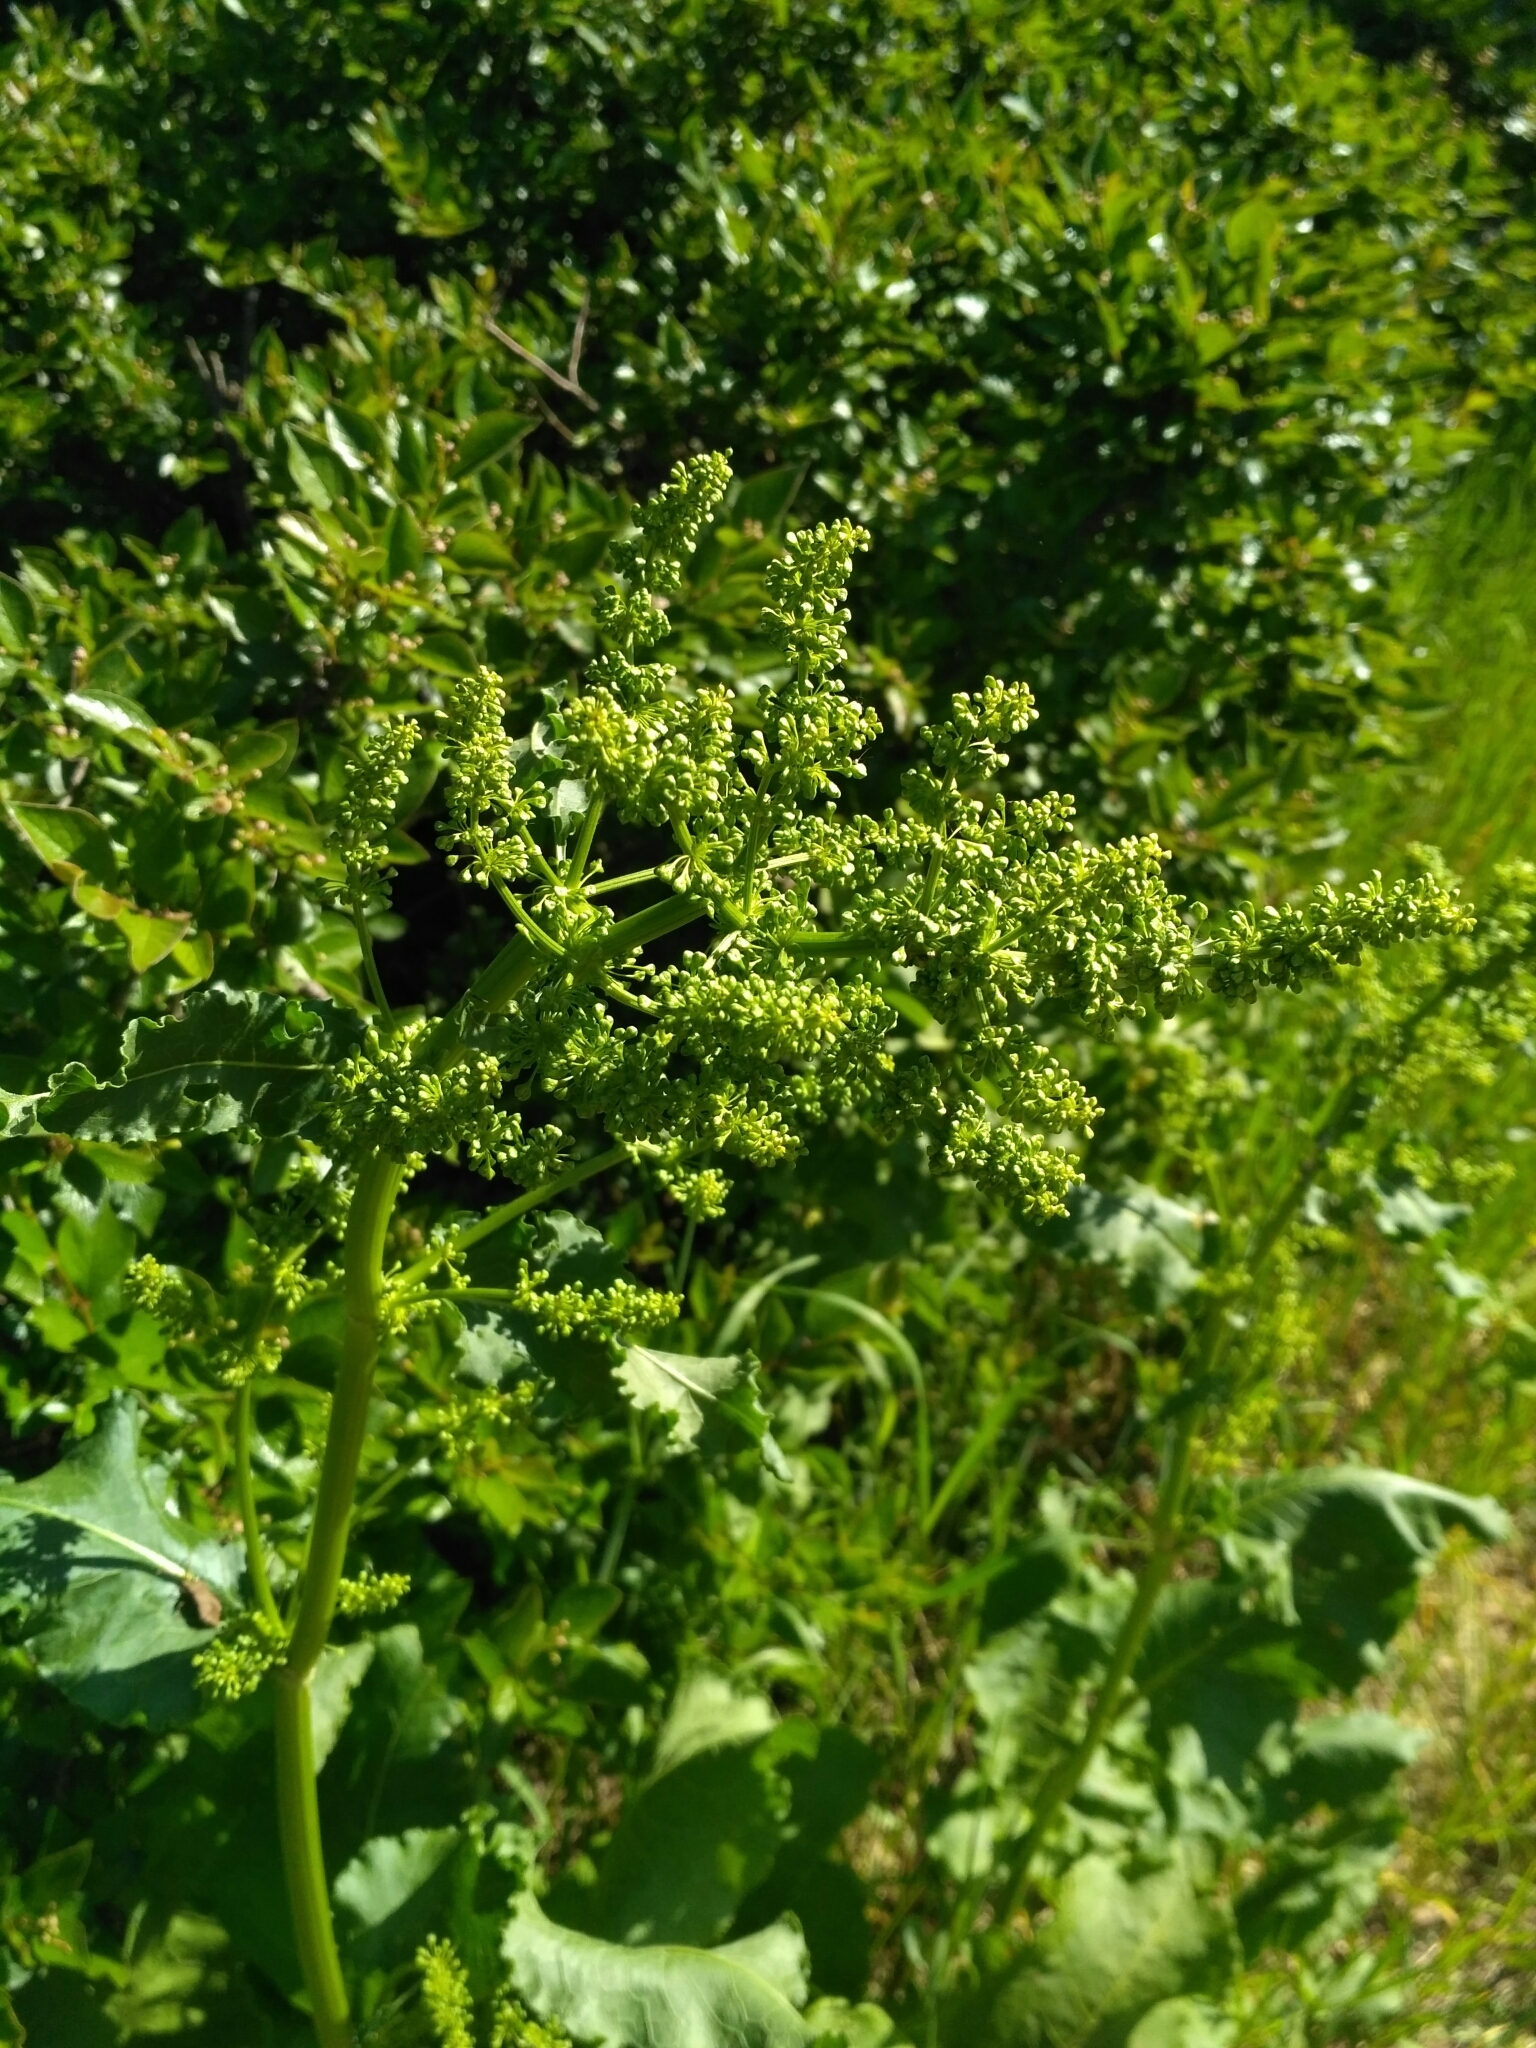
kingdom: Plantae
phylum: Tracheophyta
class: Magnoliopsida
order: Caryophyllales
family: Polygonaceae
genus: Rumex
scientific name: Rumex confertus
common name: Russian dock
